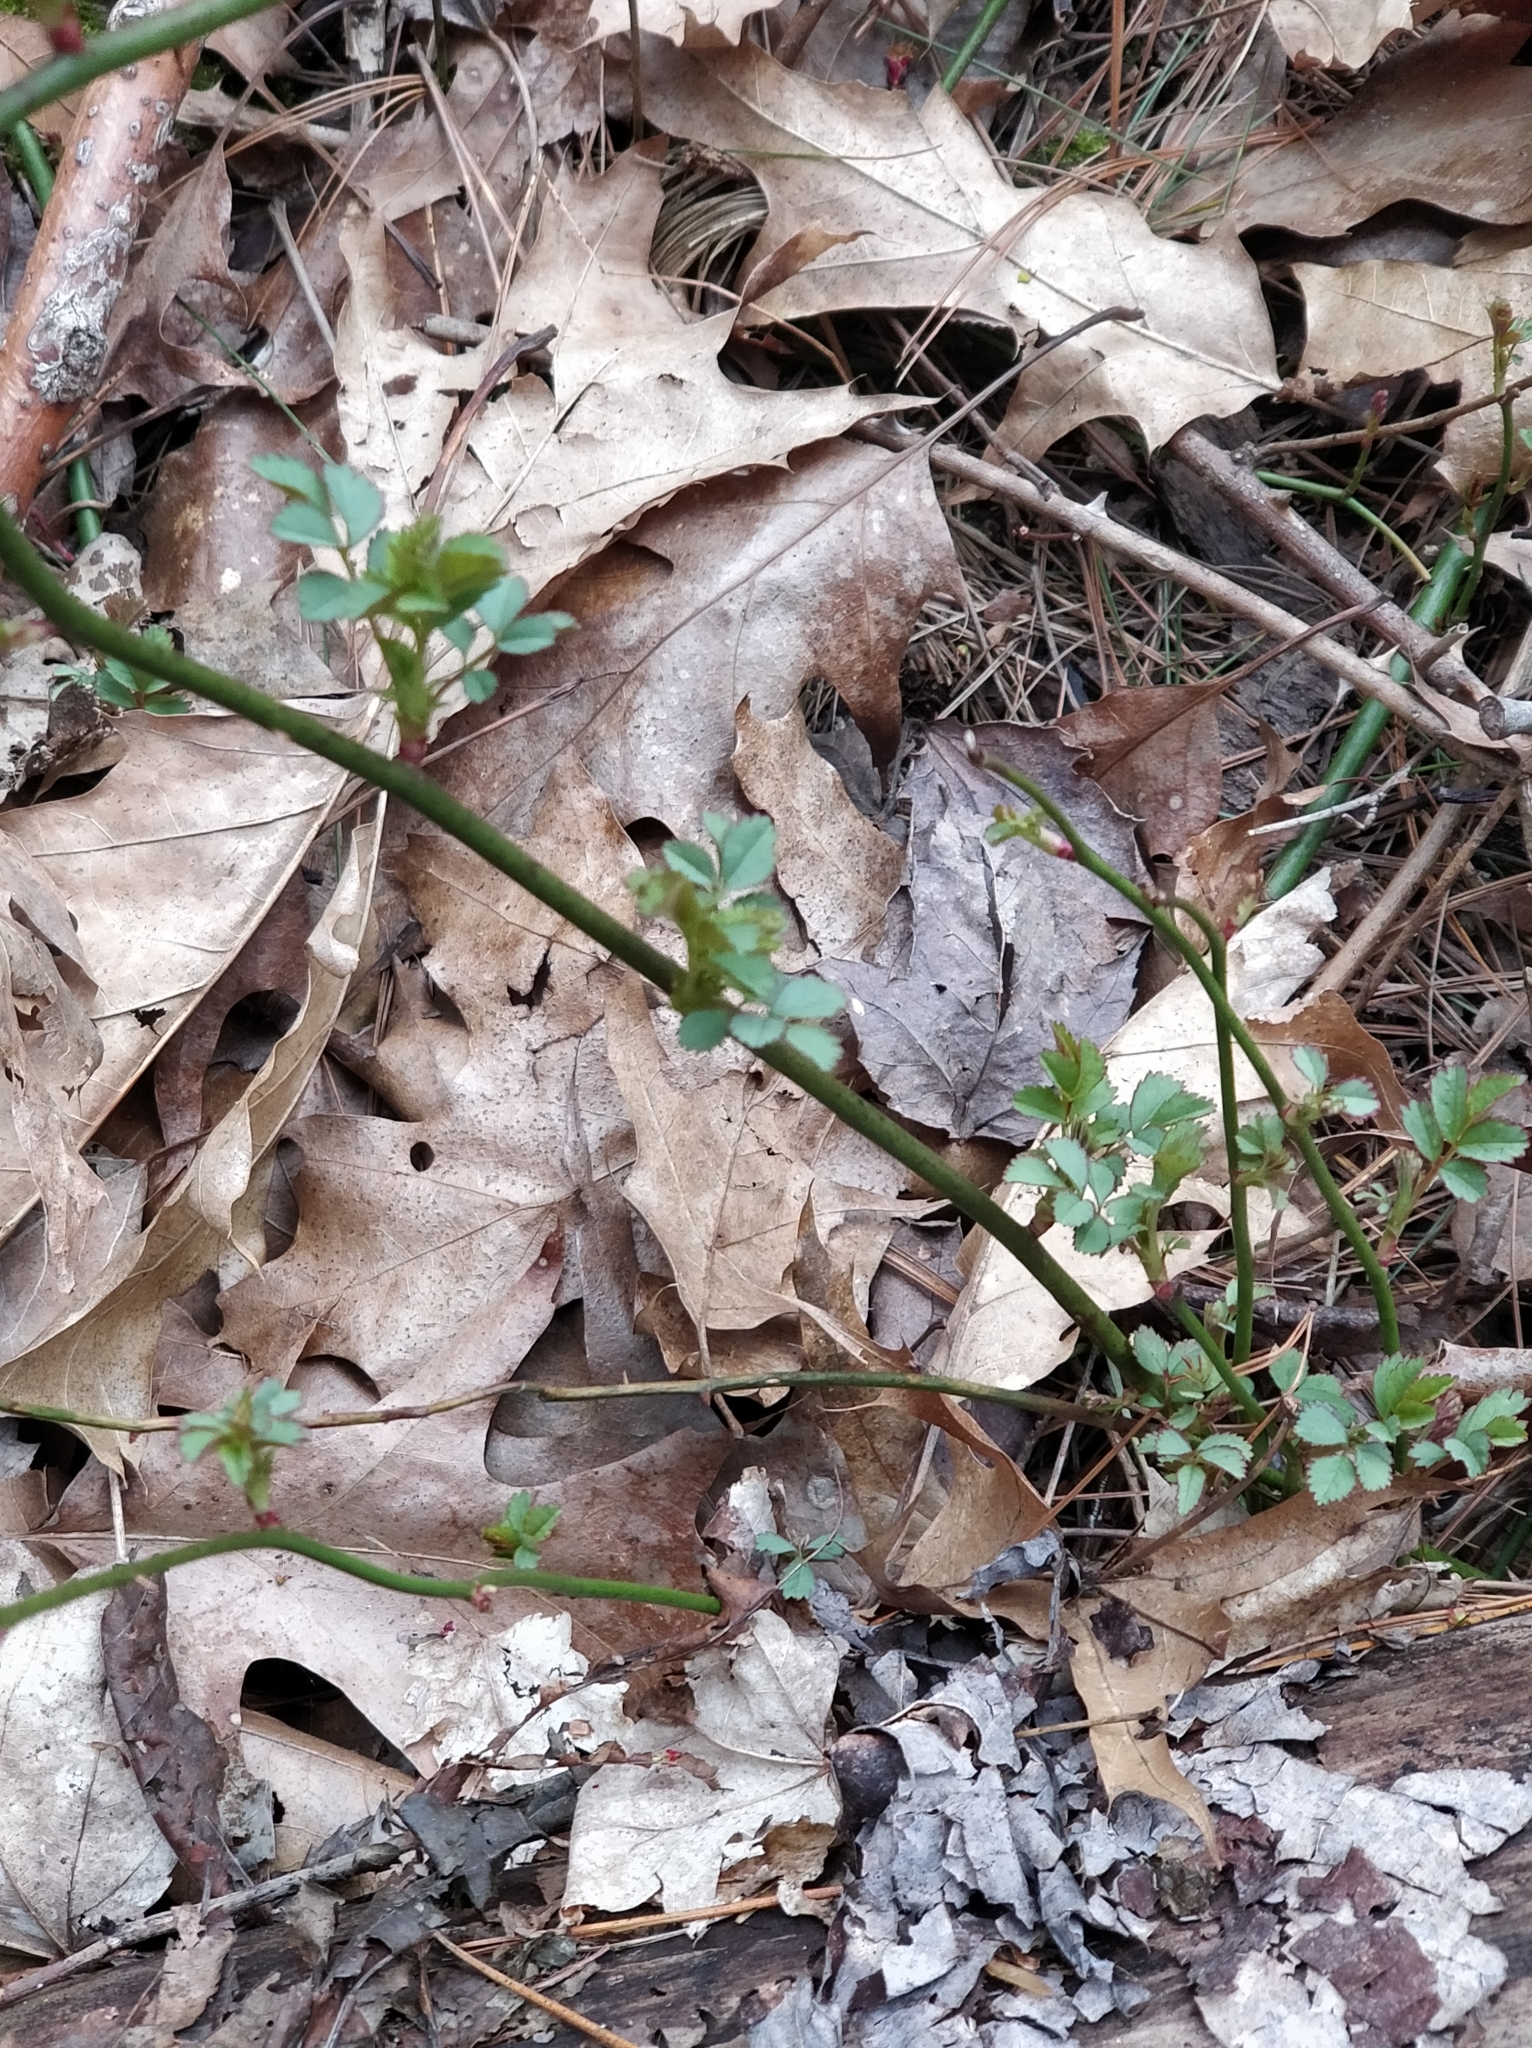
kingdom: Plantae
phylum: Tracheophyta
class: Magnoliopsida
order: Rosales
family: Rosaceae
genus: Rosa
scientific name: Rosa multiflora
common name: Multiflora rose
